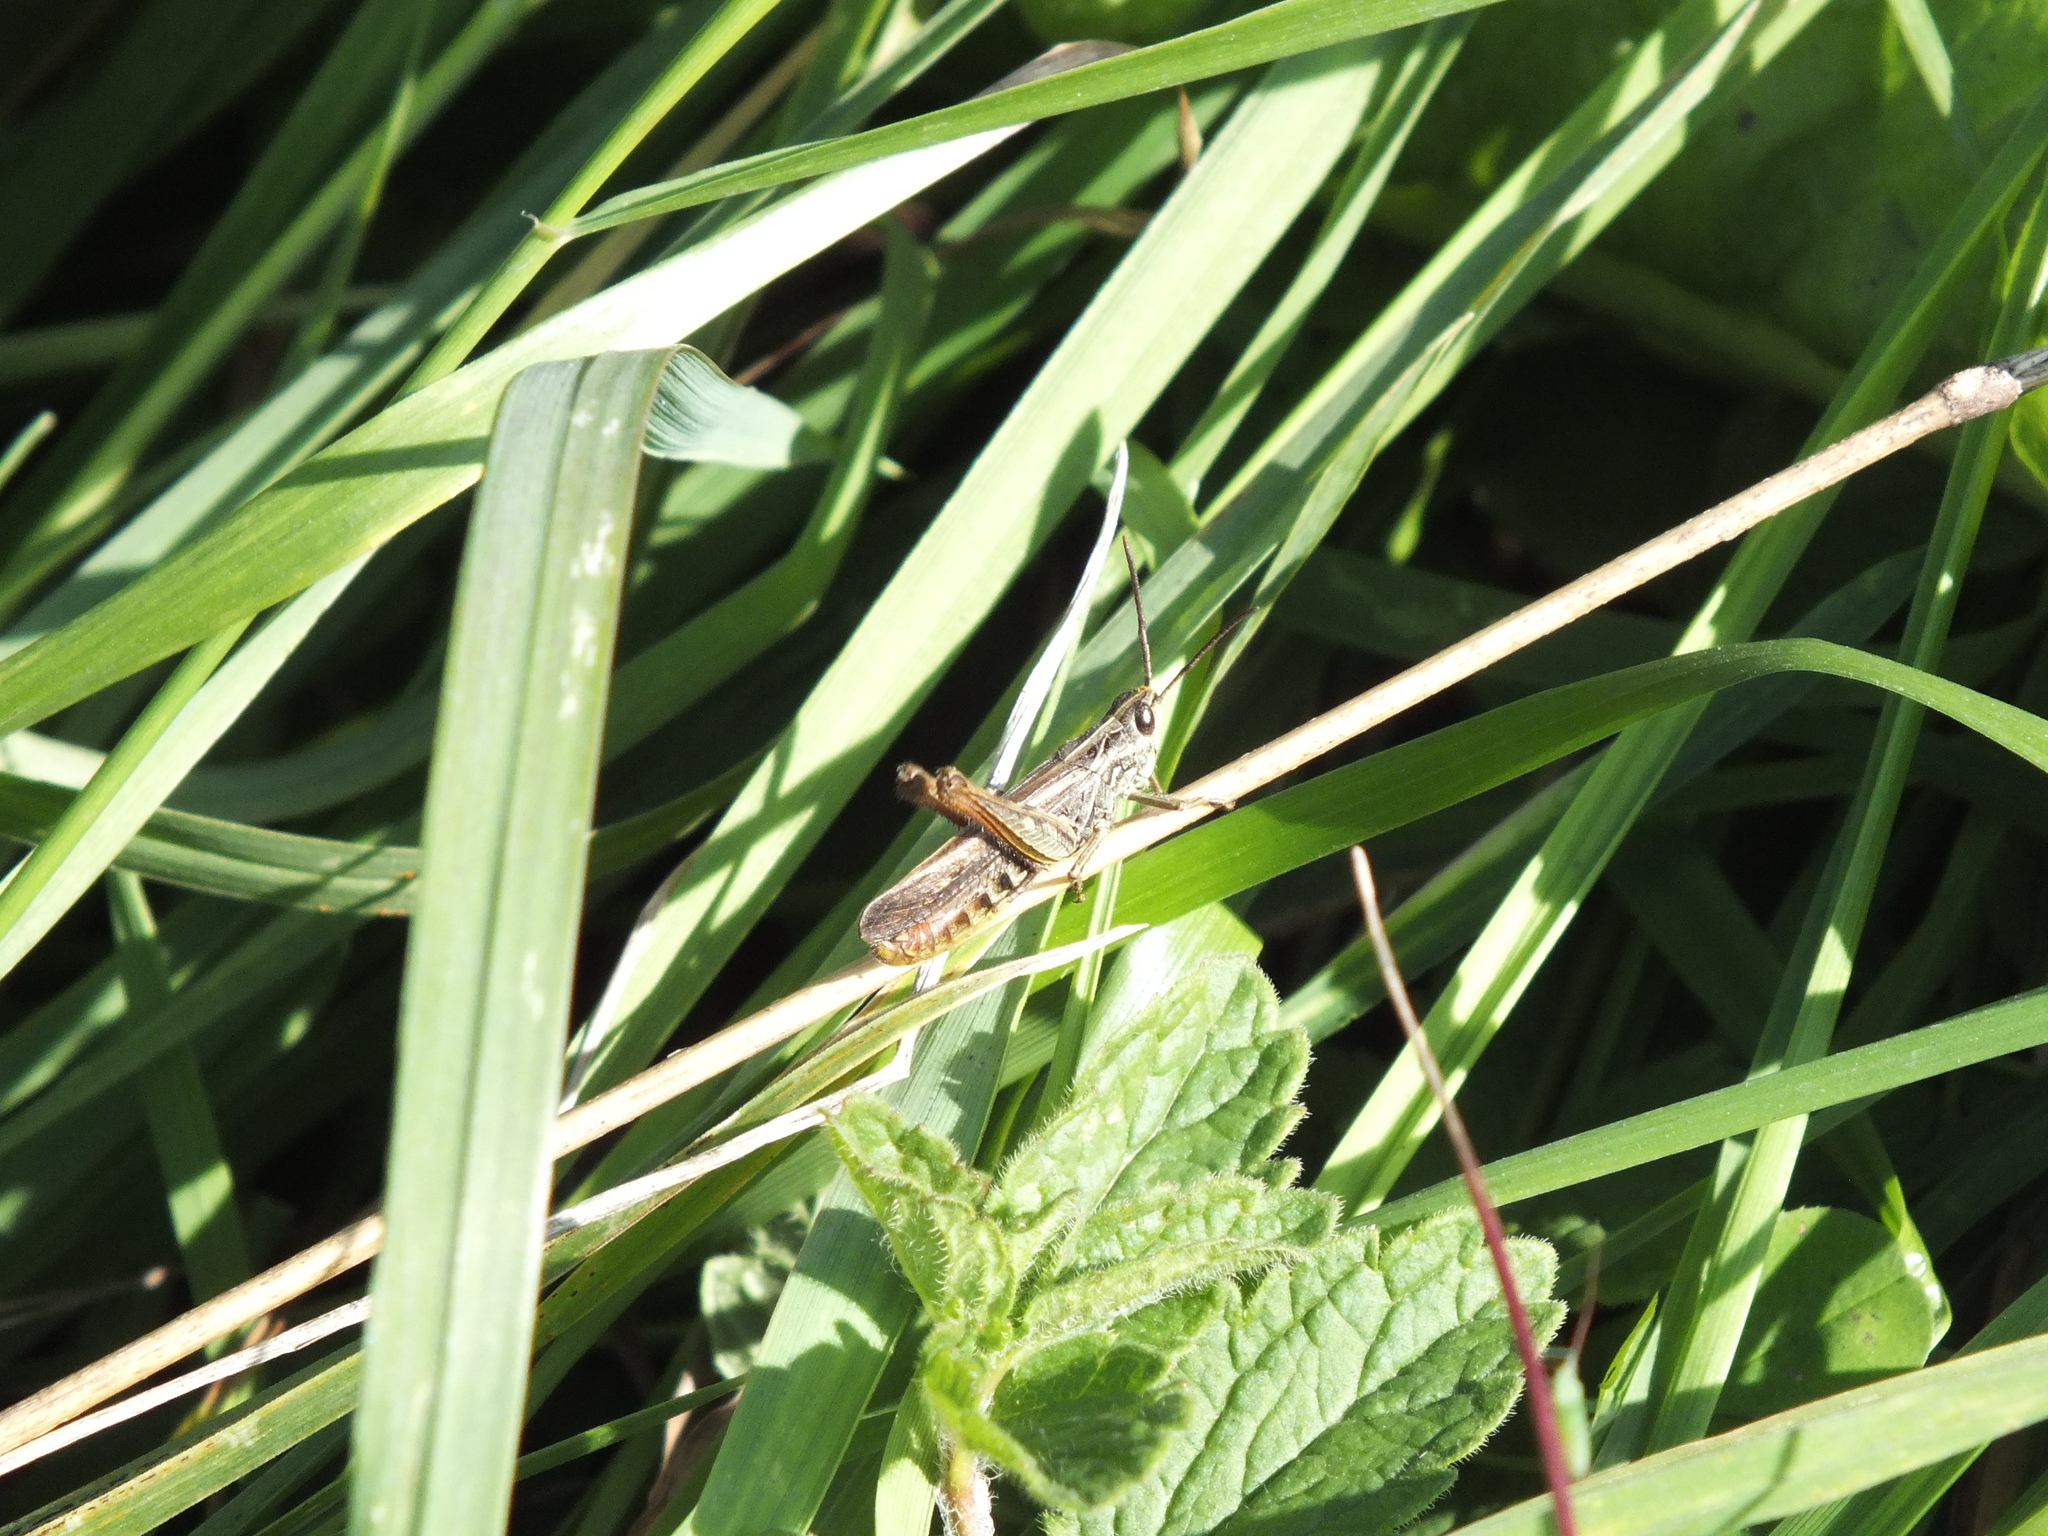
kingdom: Animalia
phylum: Arthropoda
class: Insecta
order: Orthoptera
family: Acrididae
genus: Glyptobothrus
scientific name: Glyptobothrus
